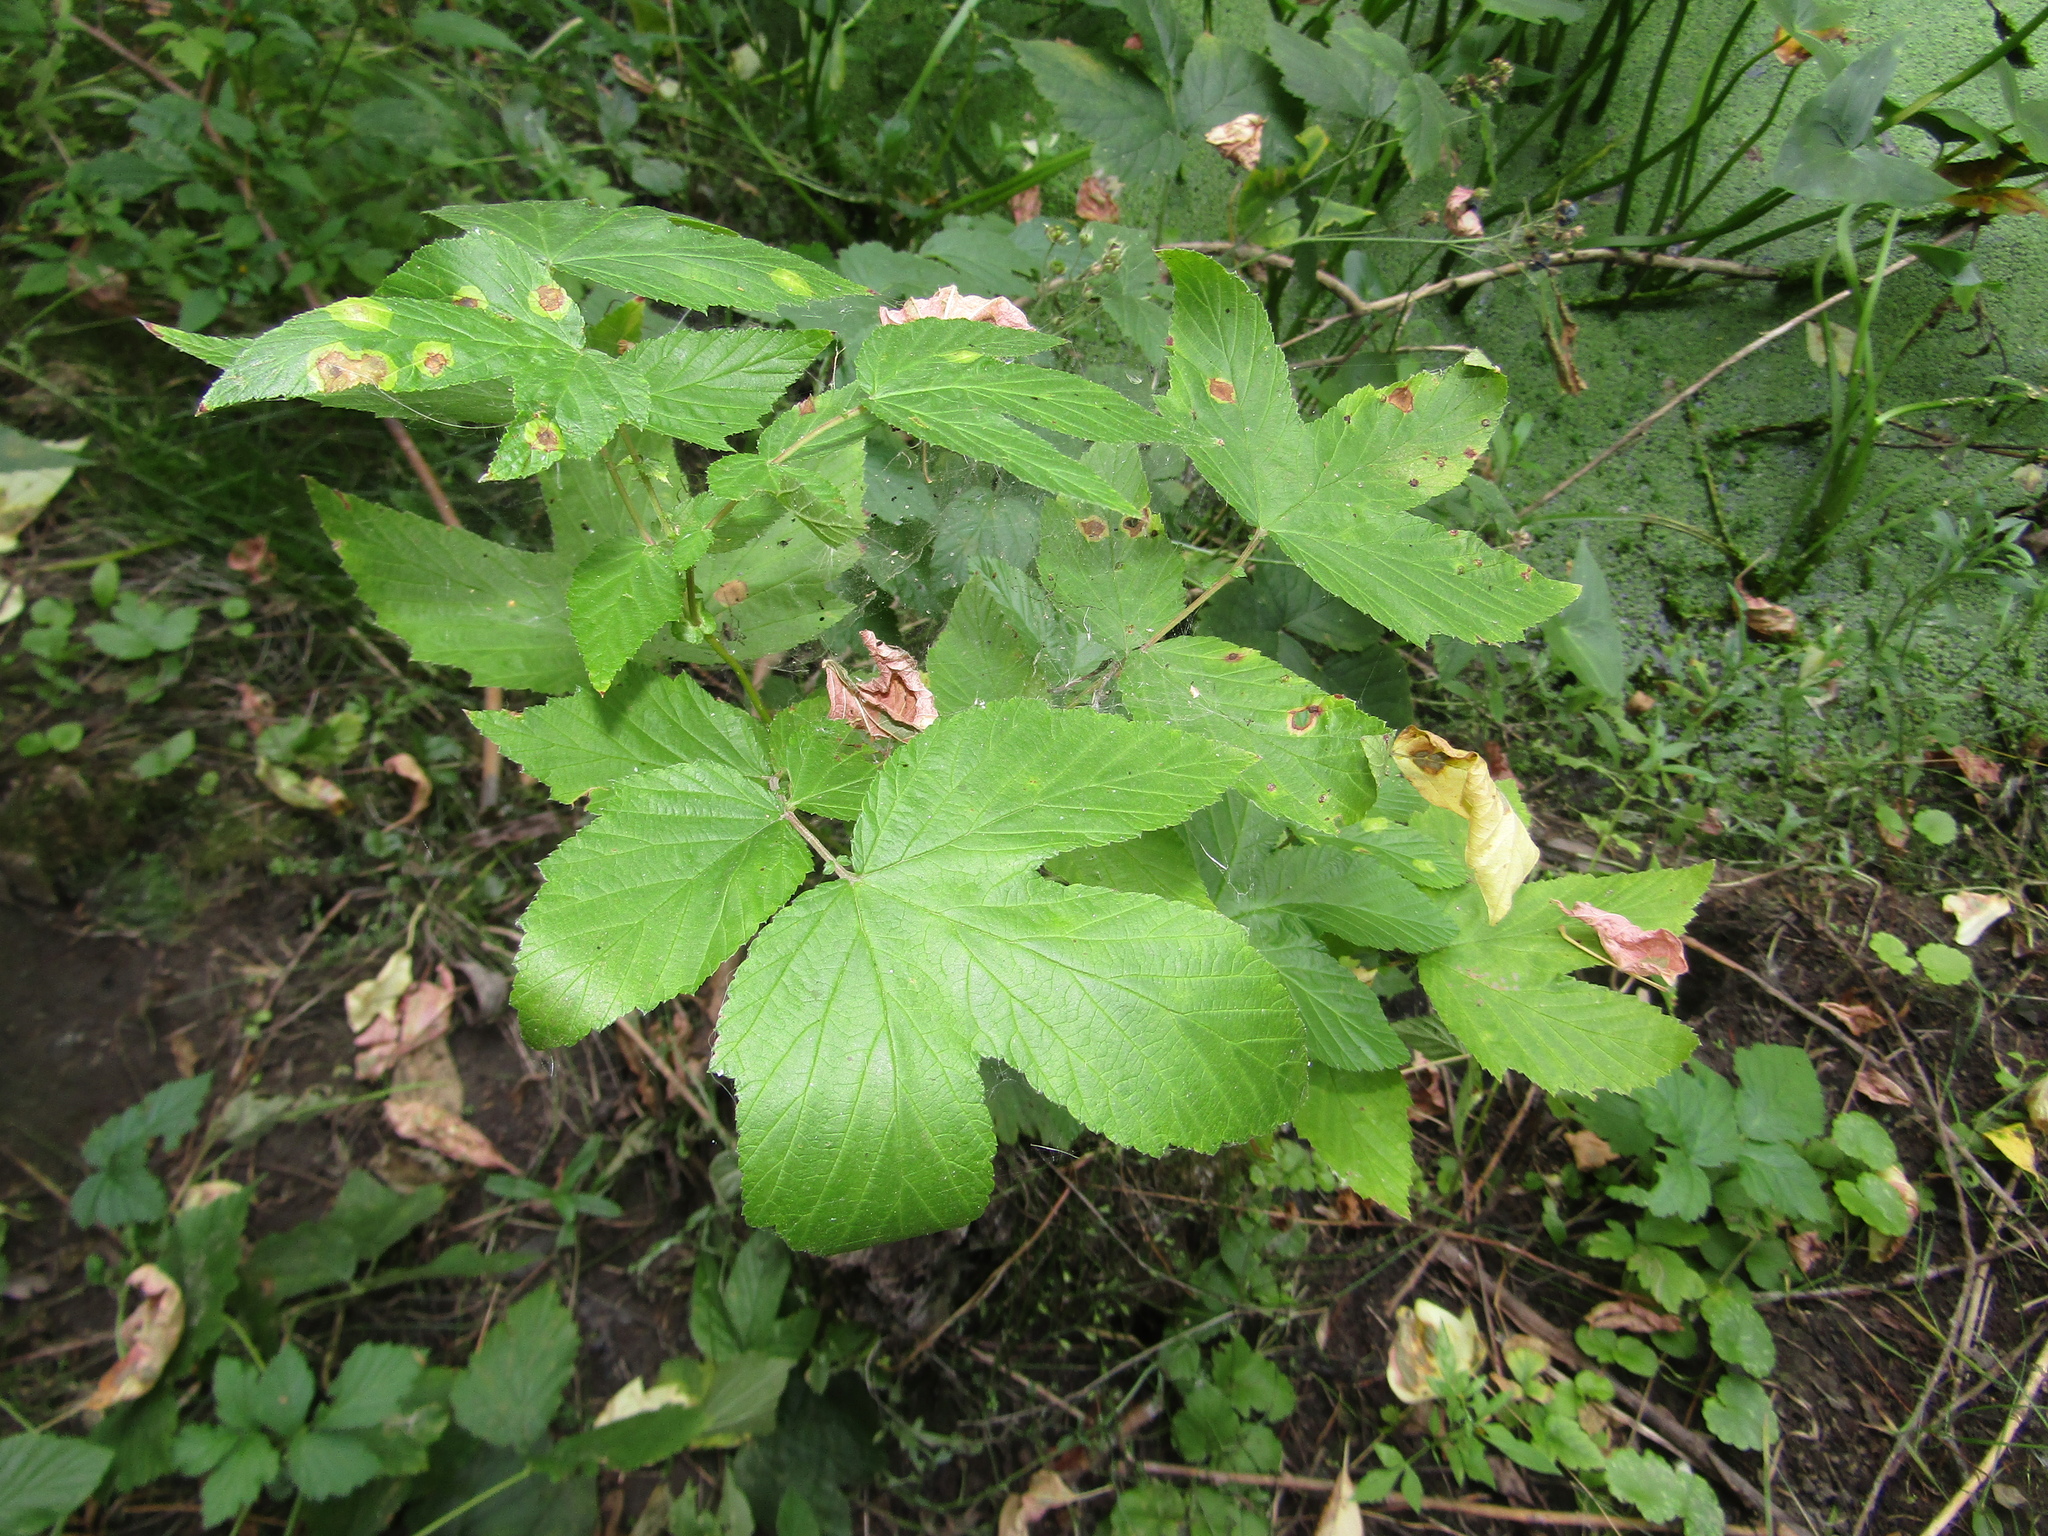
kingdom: Plantae
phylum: Tracheophyta
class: Magnoliopsida
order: Rosales
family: Rosaceae
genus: Filipendula
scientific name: Filipendula ulmaria
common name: Meadowsweet
